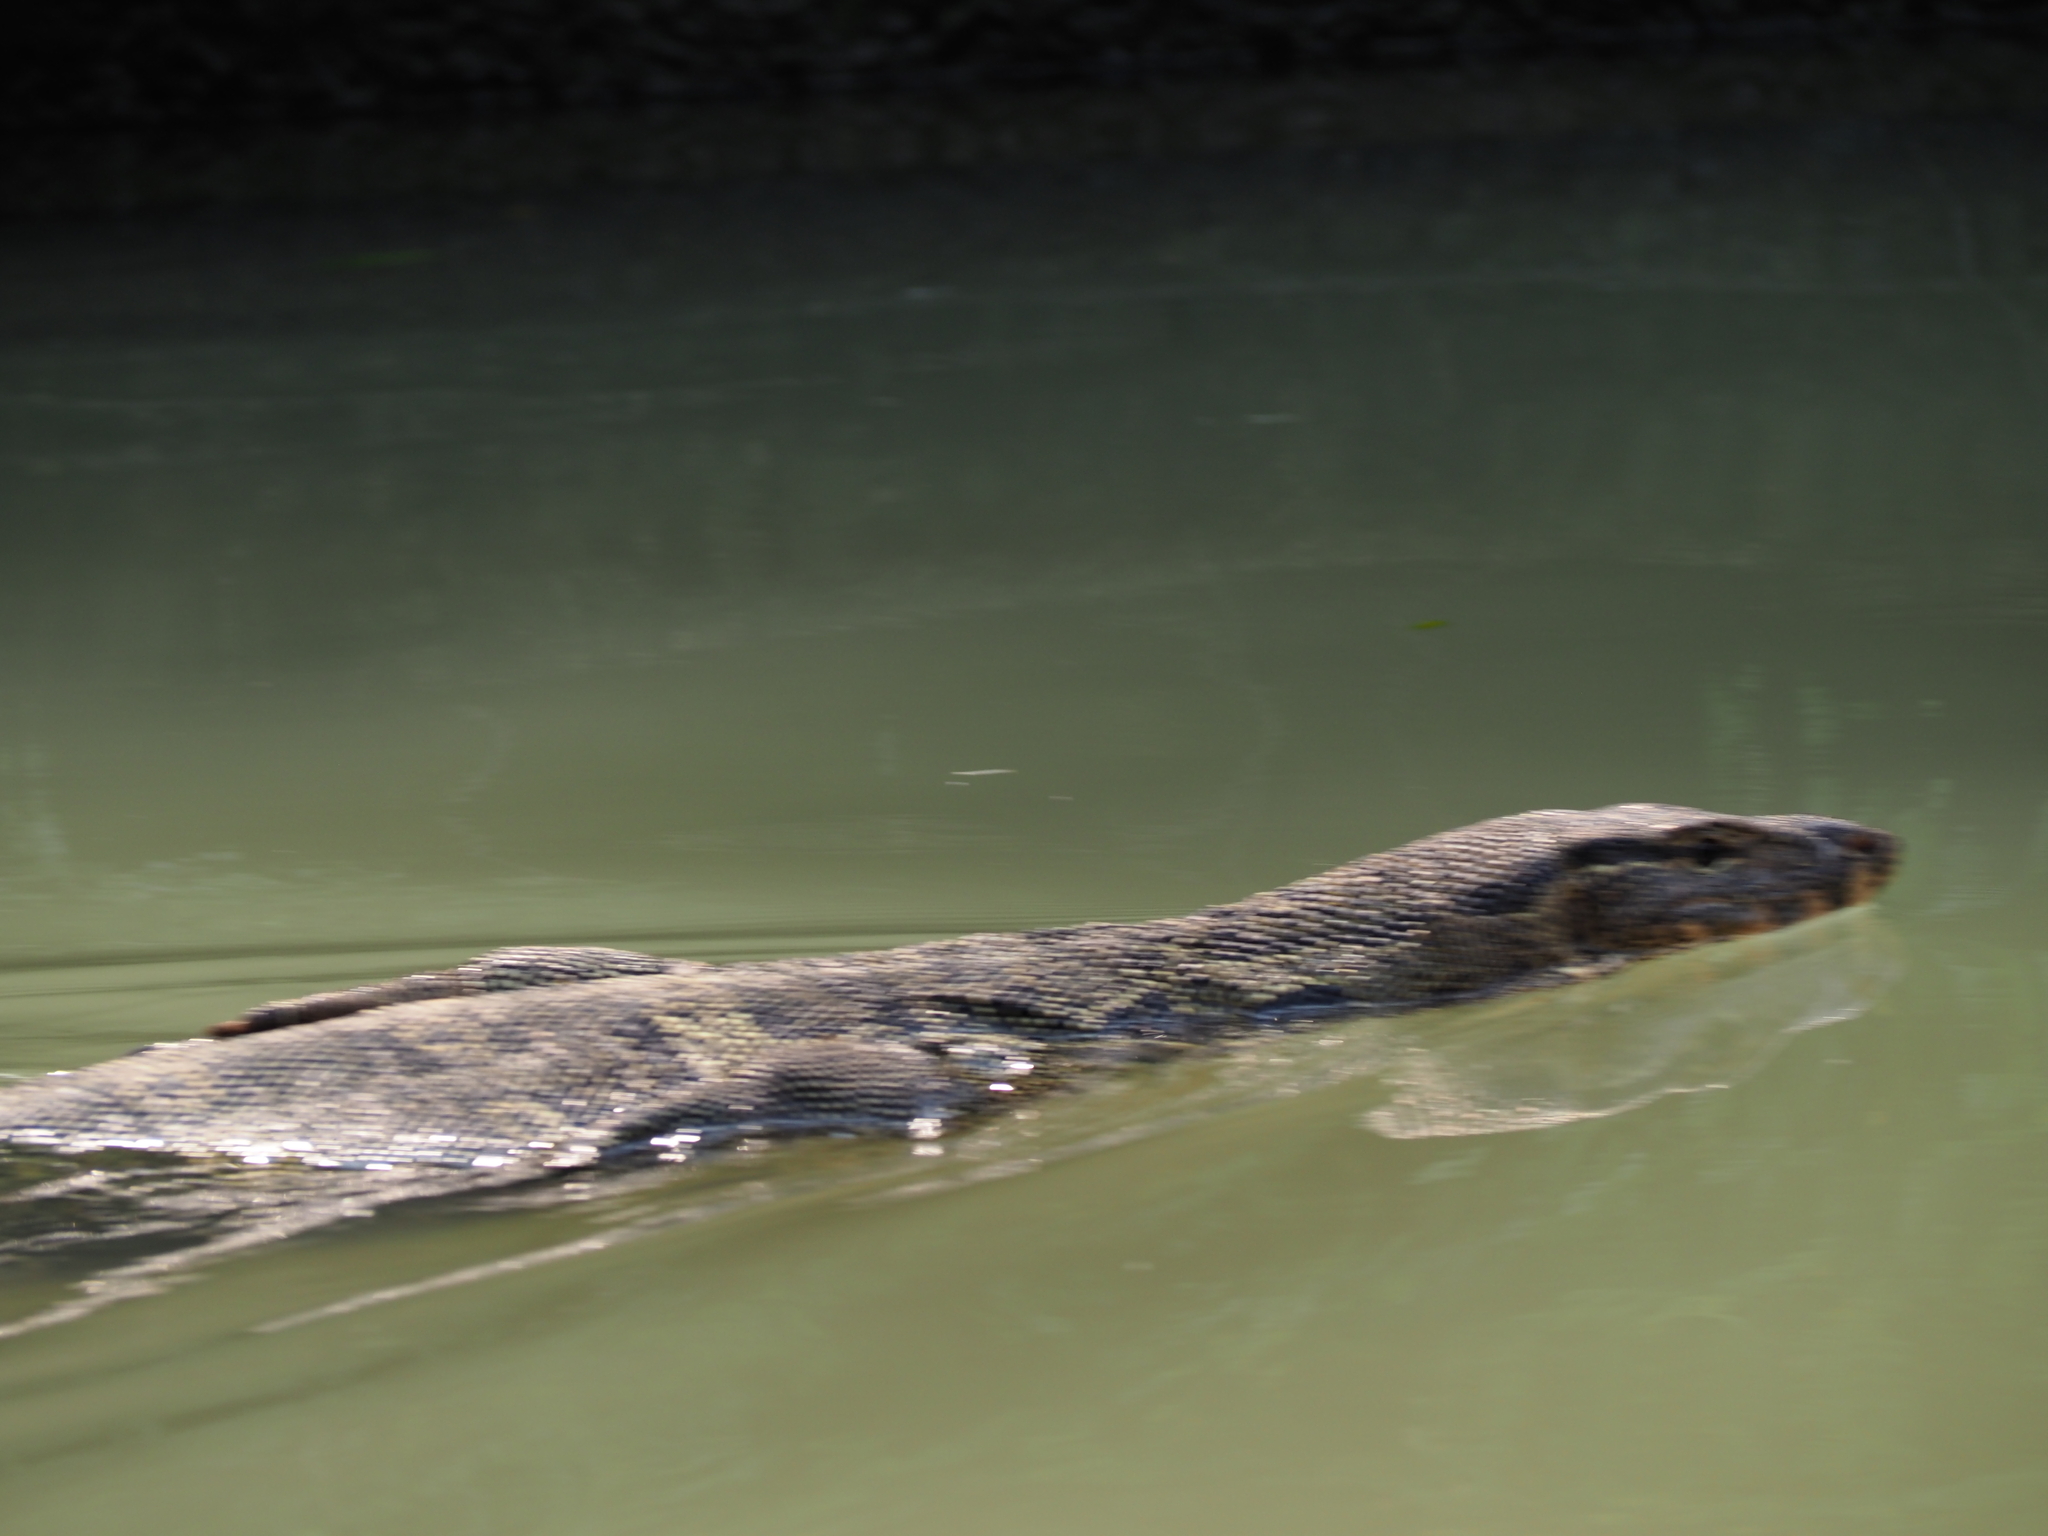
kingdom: Animalia
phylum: Chordata
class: Squamata
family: Varanidae
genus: Varanus
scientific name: Varanus salvator
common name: Common water monitor
